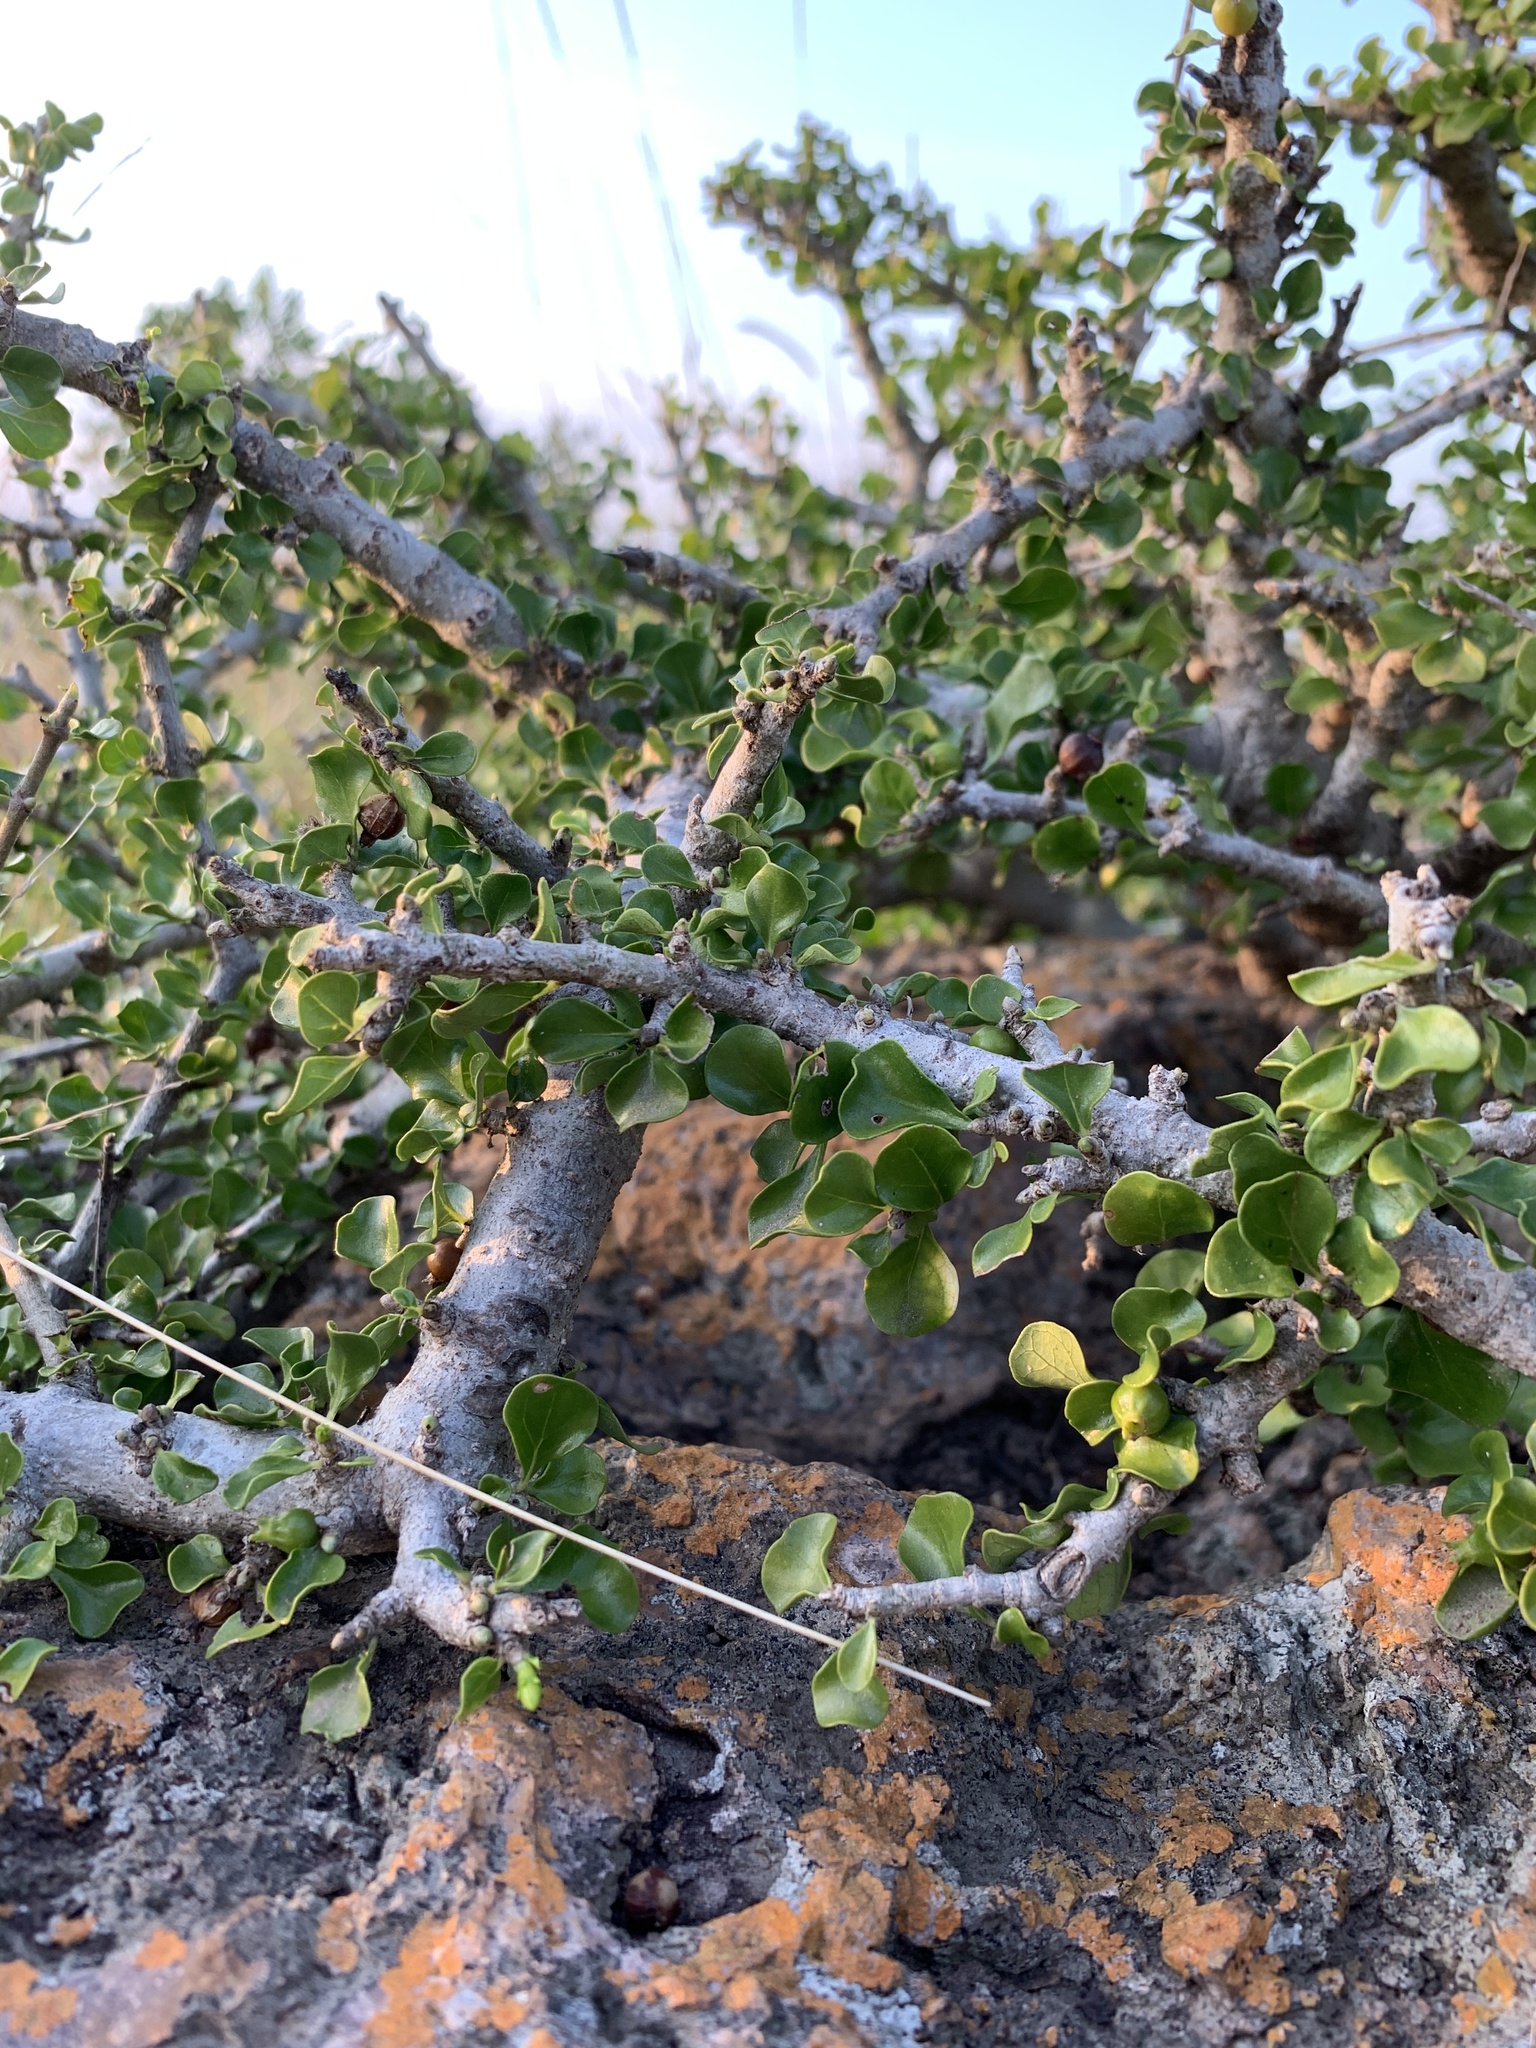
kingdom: Plantae
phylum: Tracheophyta
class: Magnoliopsida
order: Gentianales
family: Rubiaceae
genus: Coddia
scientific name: Coddia rudis
